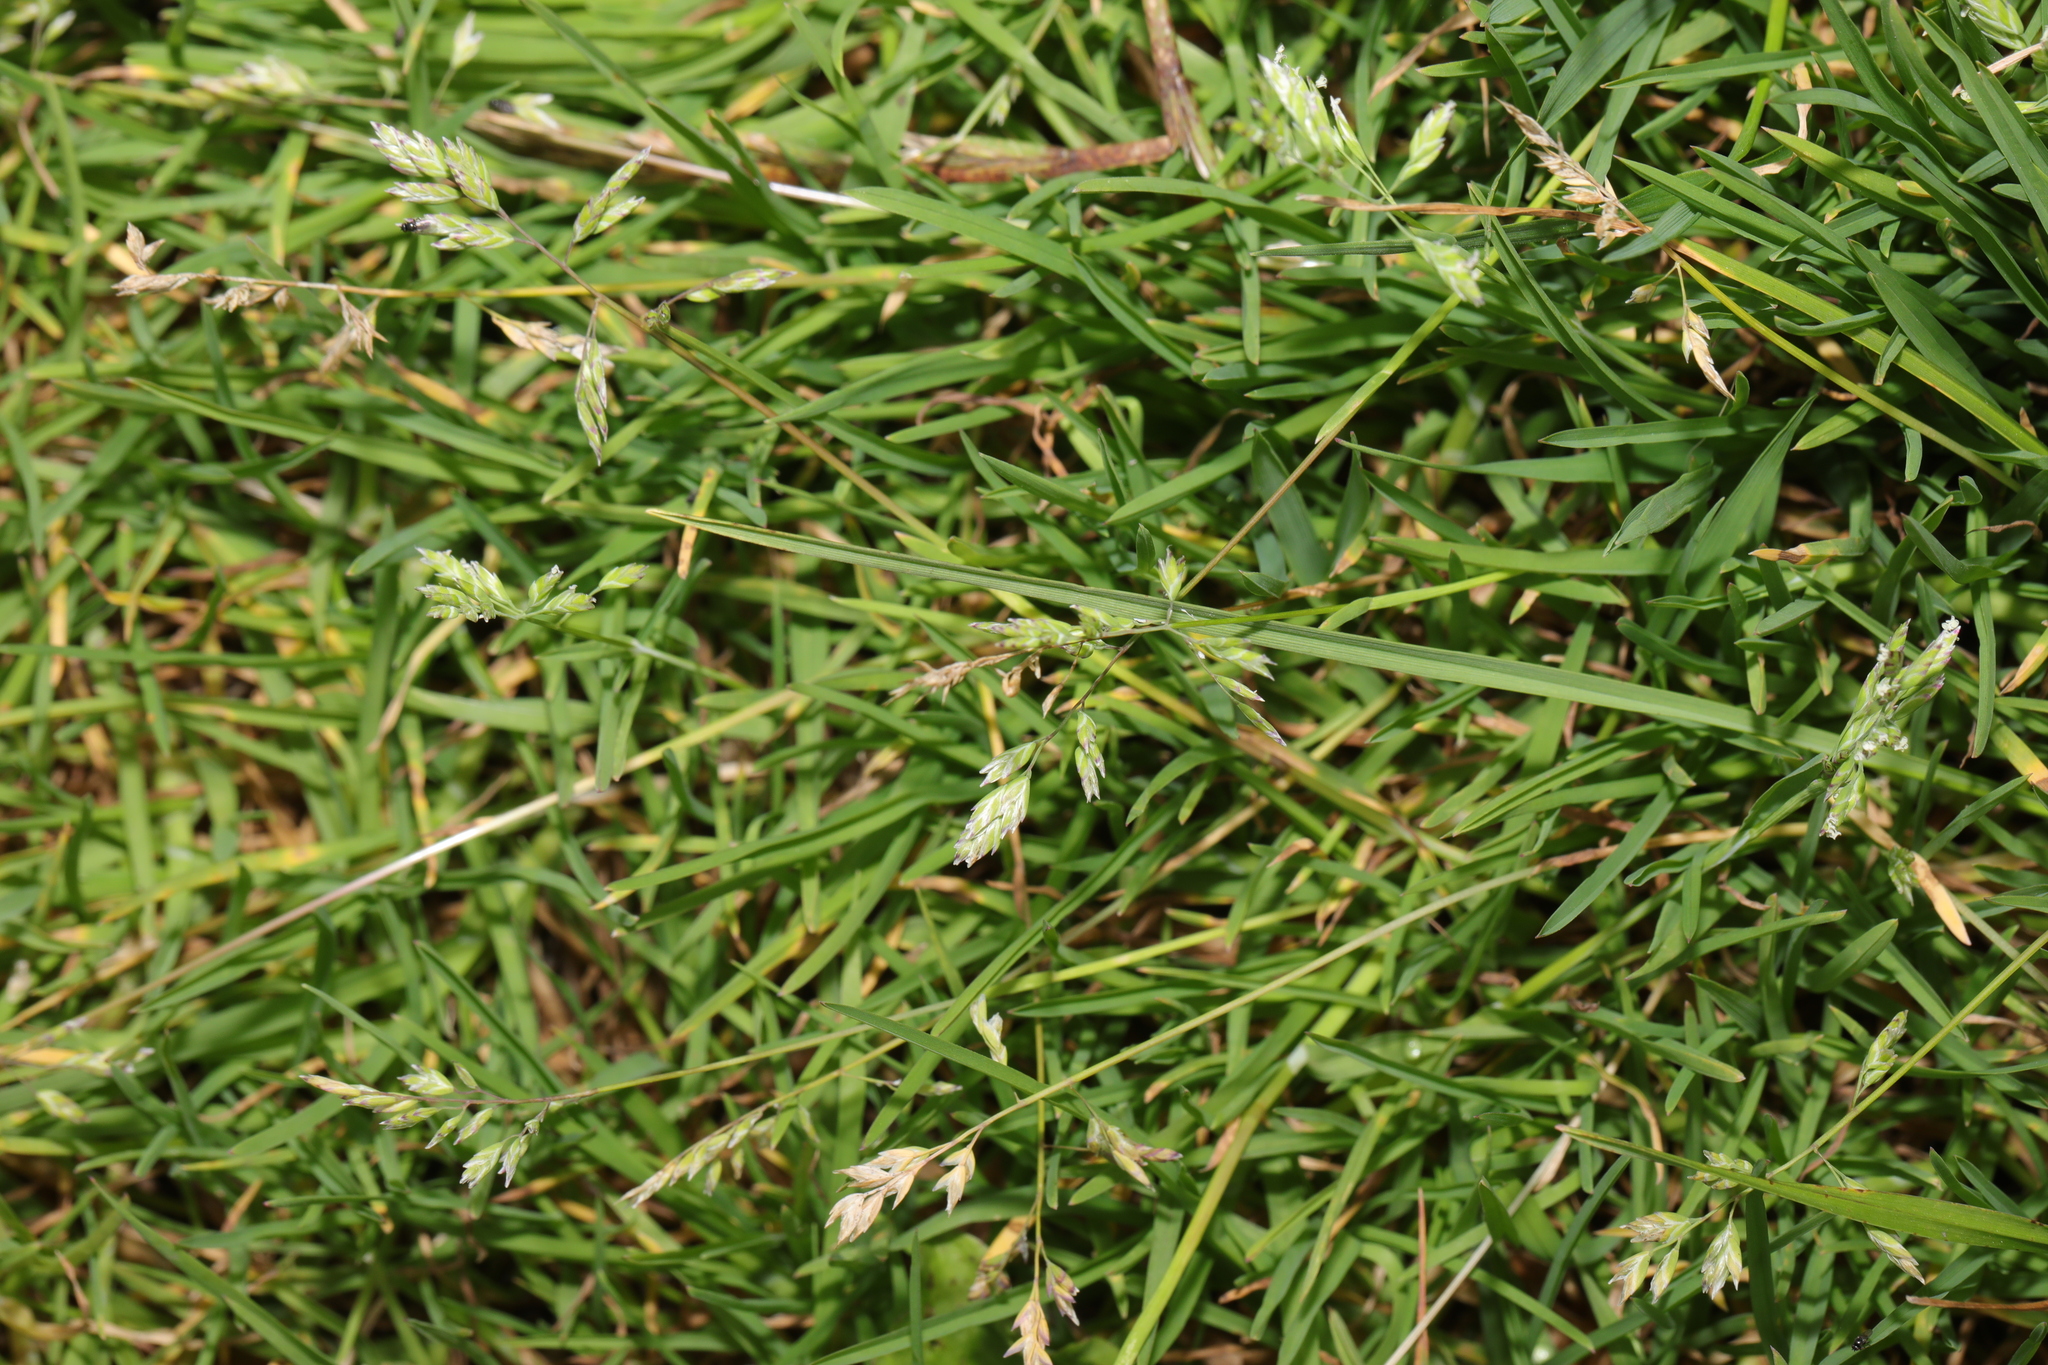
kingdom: Plantae
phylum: Tracheophyta
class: Liliopsida
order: Poales
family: Poaceae
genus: Poa
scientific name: Poa annua
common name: Annual bluegrass
